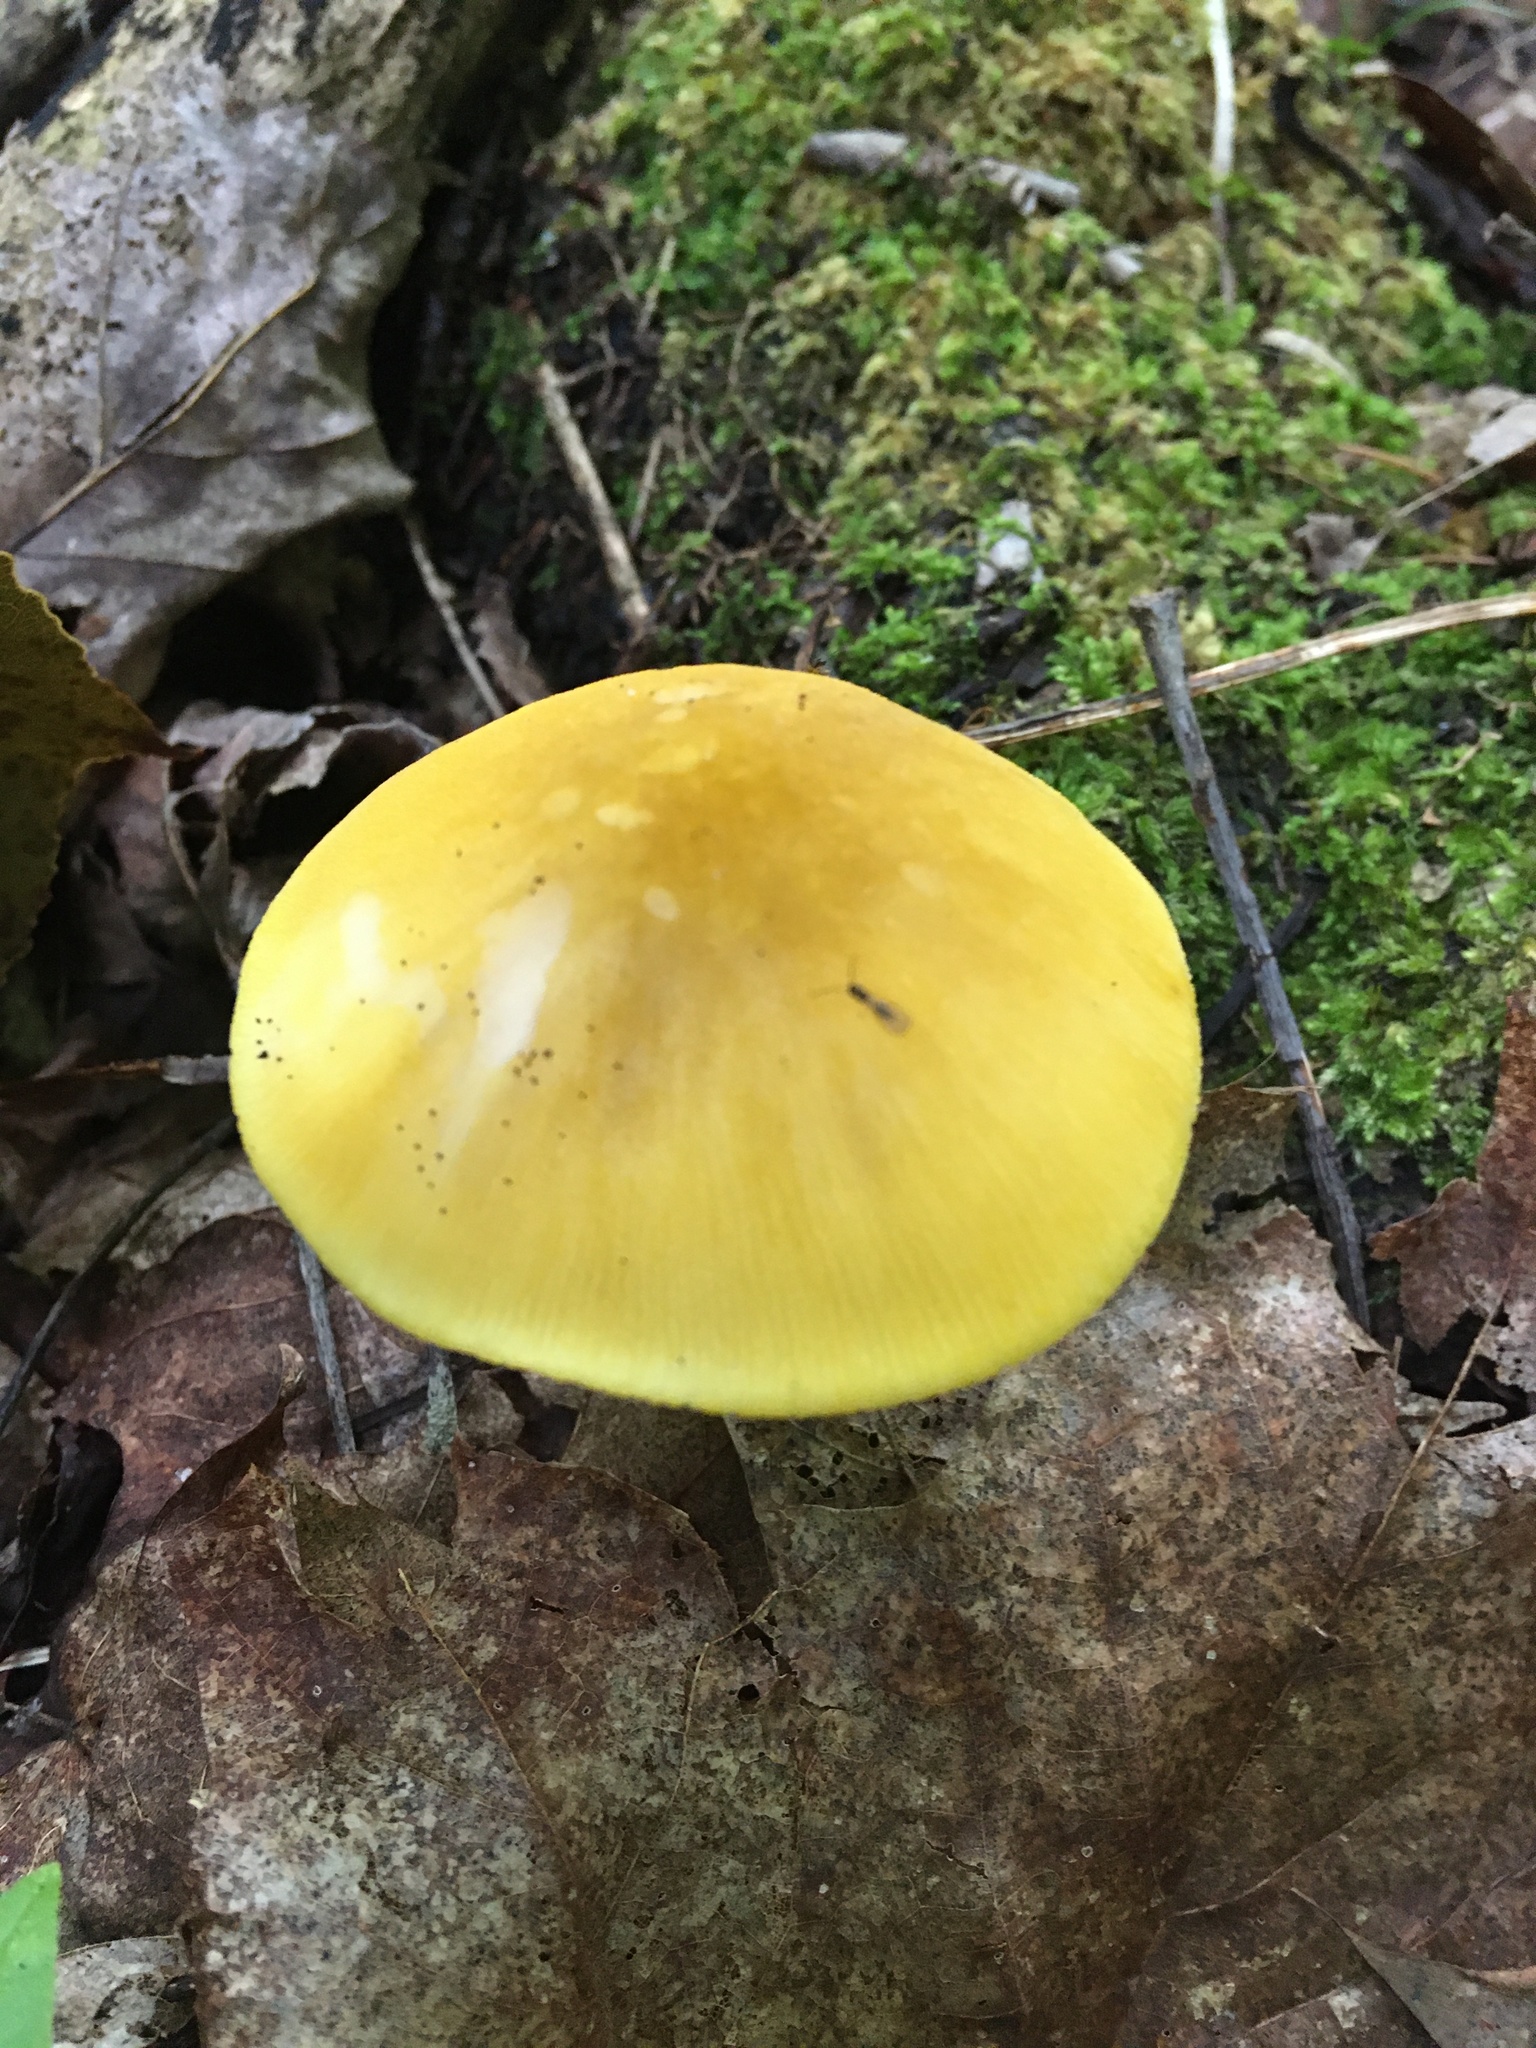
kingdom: Fungi
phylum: Basidiomycota
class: Agaricomycetes
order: Agaricales
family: Pluteaceae
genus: Pluteus
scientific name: Pluteus leoninus
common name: Lion shield
